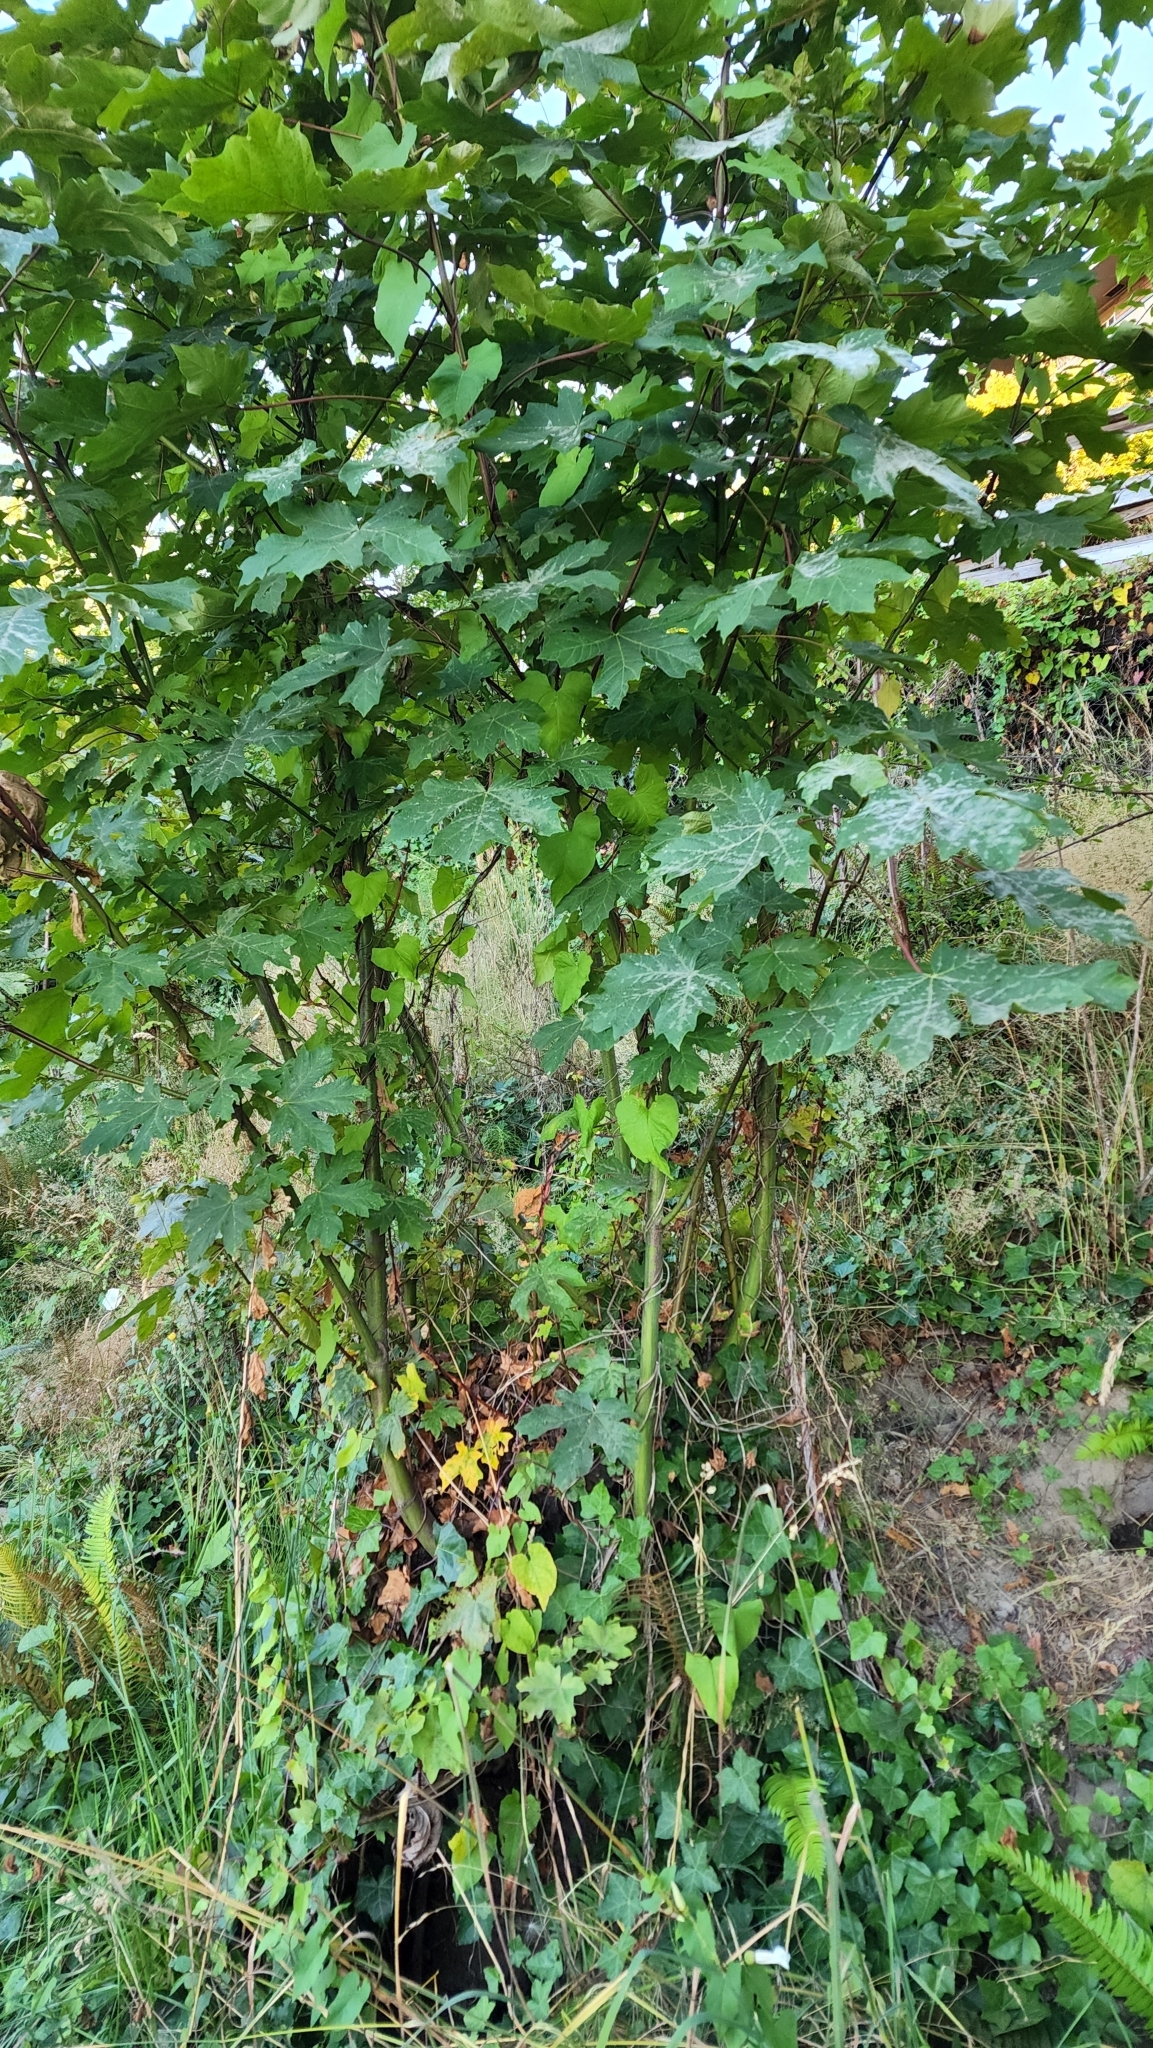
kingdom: Plantae
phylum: Tracheophyta
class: Magnoliopsida
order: Sapindales
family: Sapindaceae
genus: Acer
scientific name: Acer macrophyllum
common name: Oregon maple
